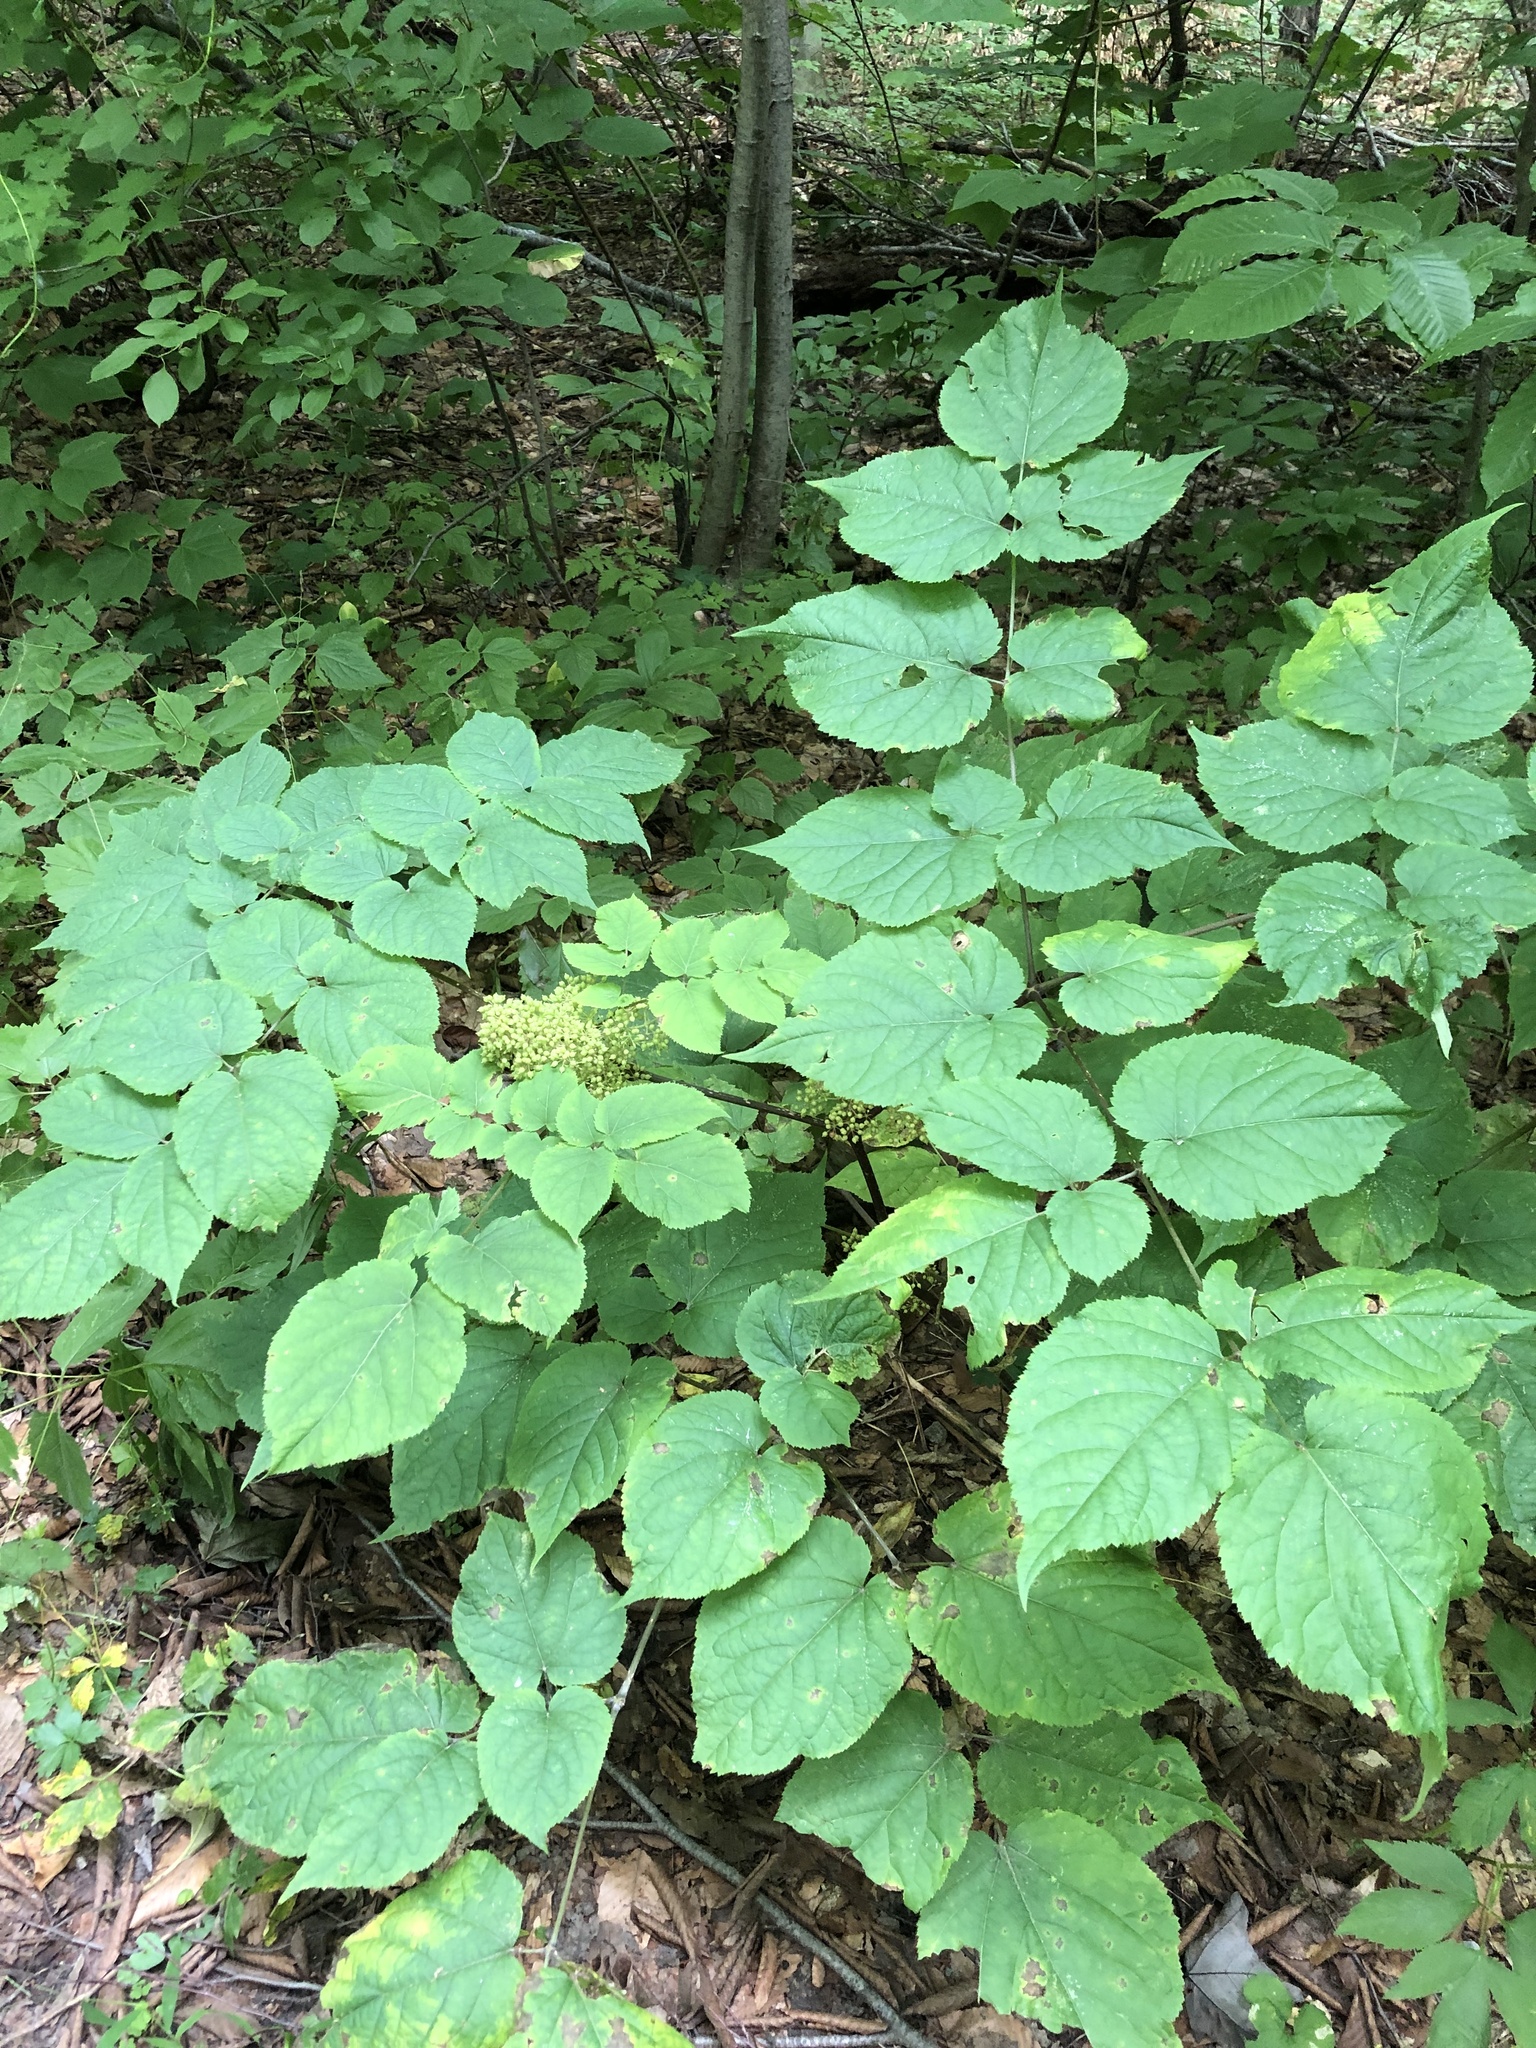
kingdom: Plantae
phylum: Tracheophyta
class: Magnoliopsida
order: Apiales
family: Araliaceae
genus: Aralia
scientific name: Aralia racemosa
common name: American-spikenard
